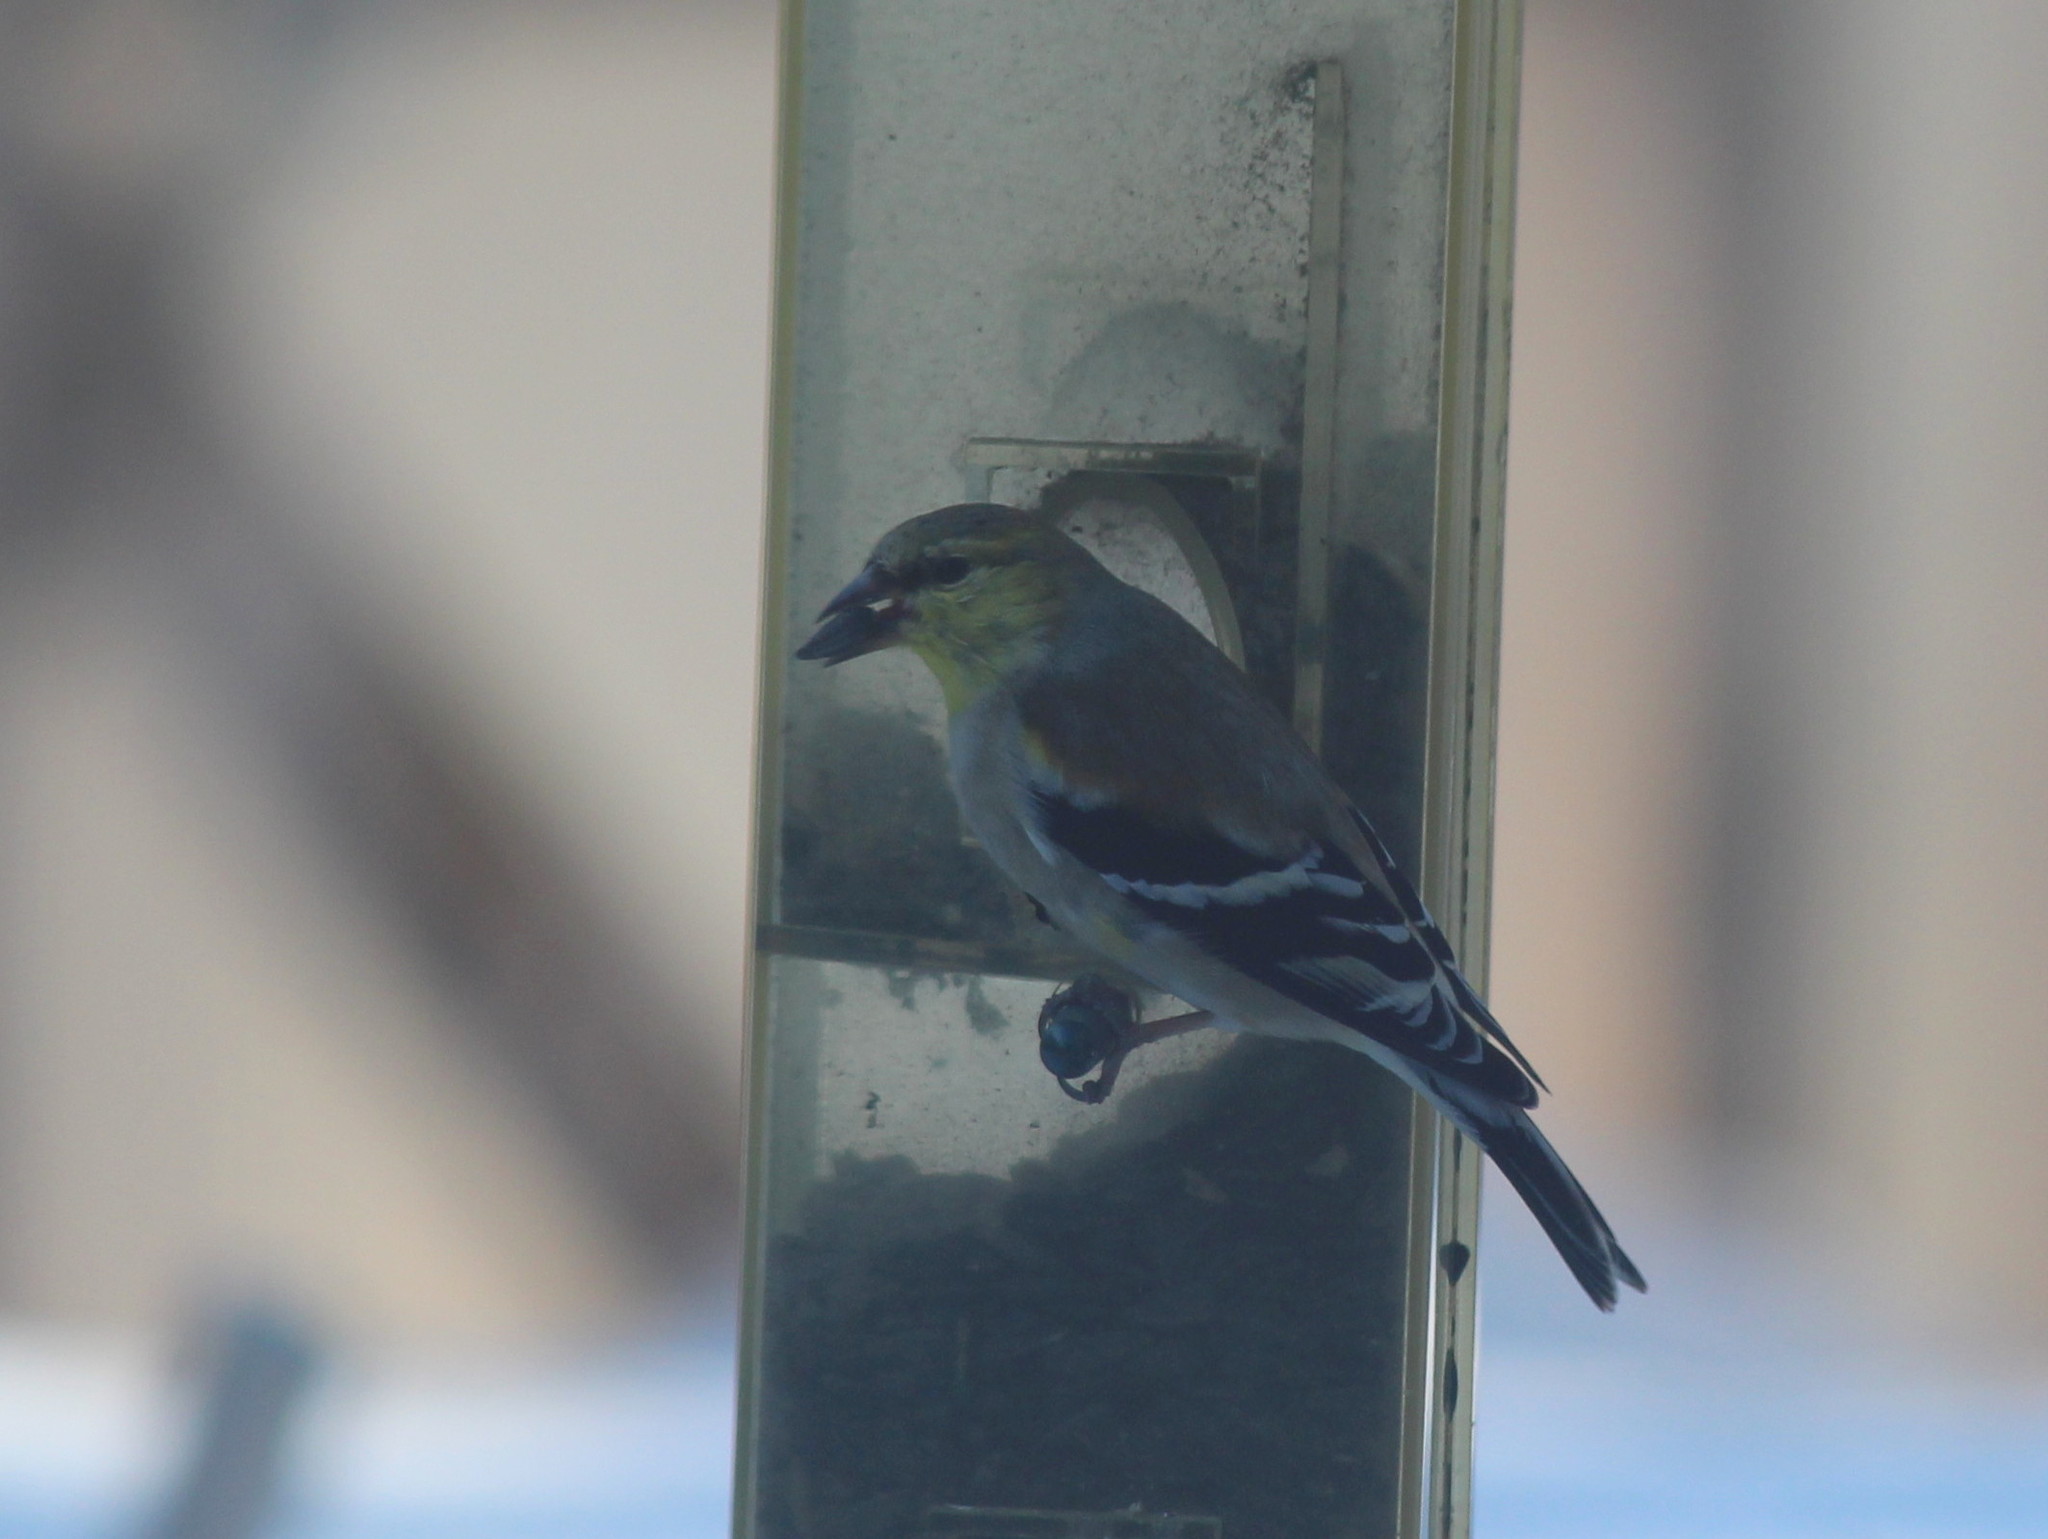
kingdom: Animalia
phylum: Chordata
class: Aves
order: Passeriformes
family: Fringillidae
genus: Spinus
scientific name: Spinus tristis
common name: American goldfinch
